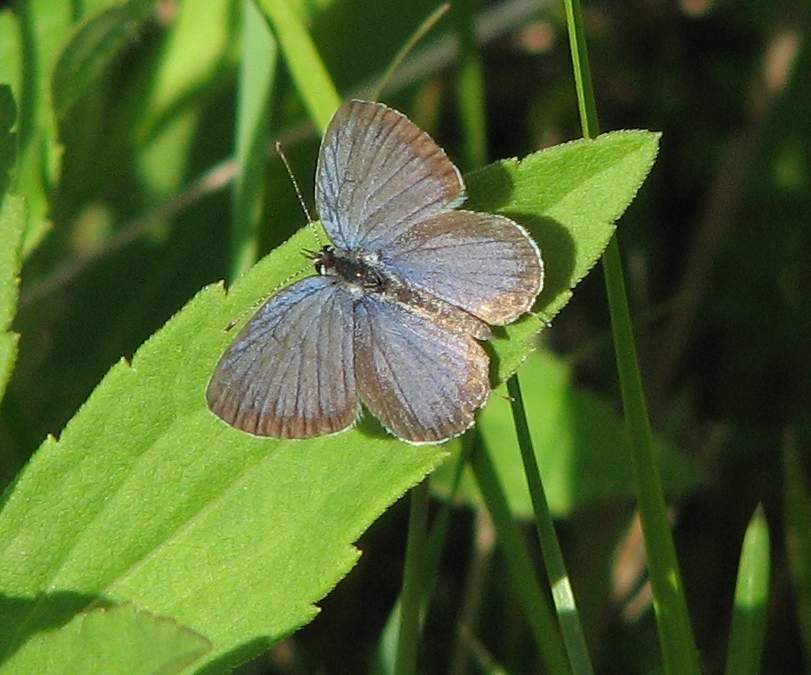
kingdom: Animalia
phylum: Arthropoda
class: Insecta
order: Lepidoptera
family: Lycaenidae
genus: Elkalyce
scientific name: Elkalyce comyntas
